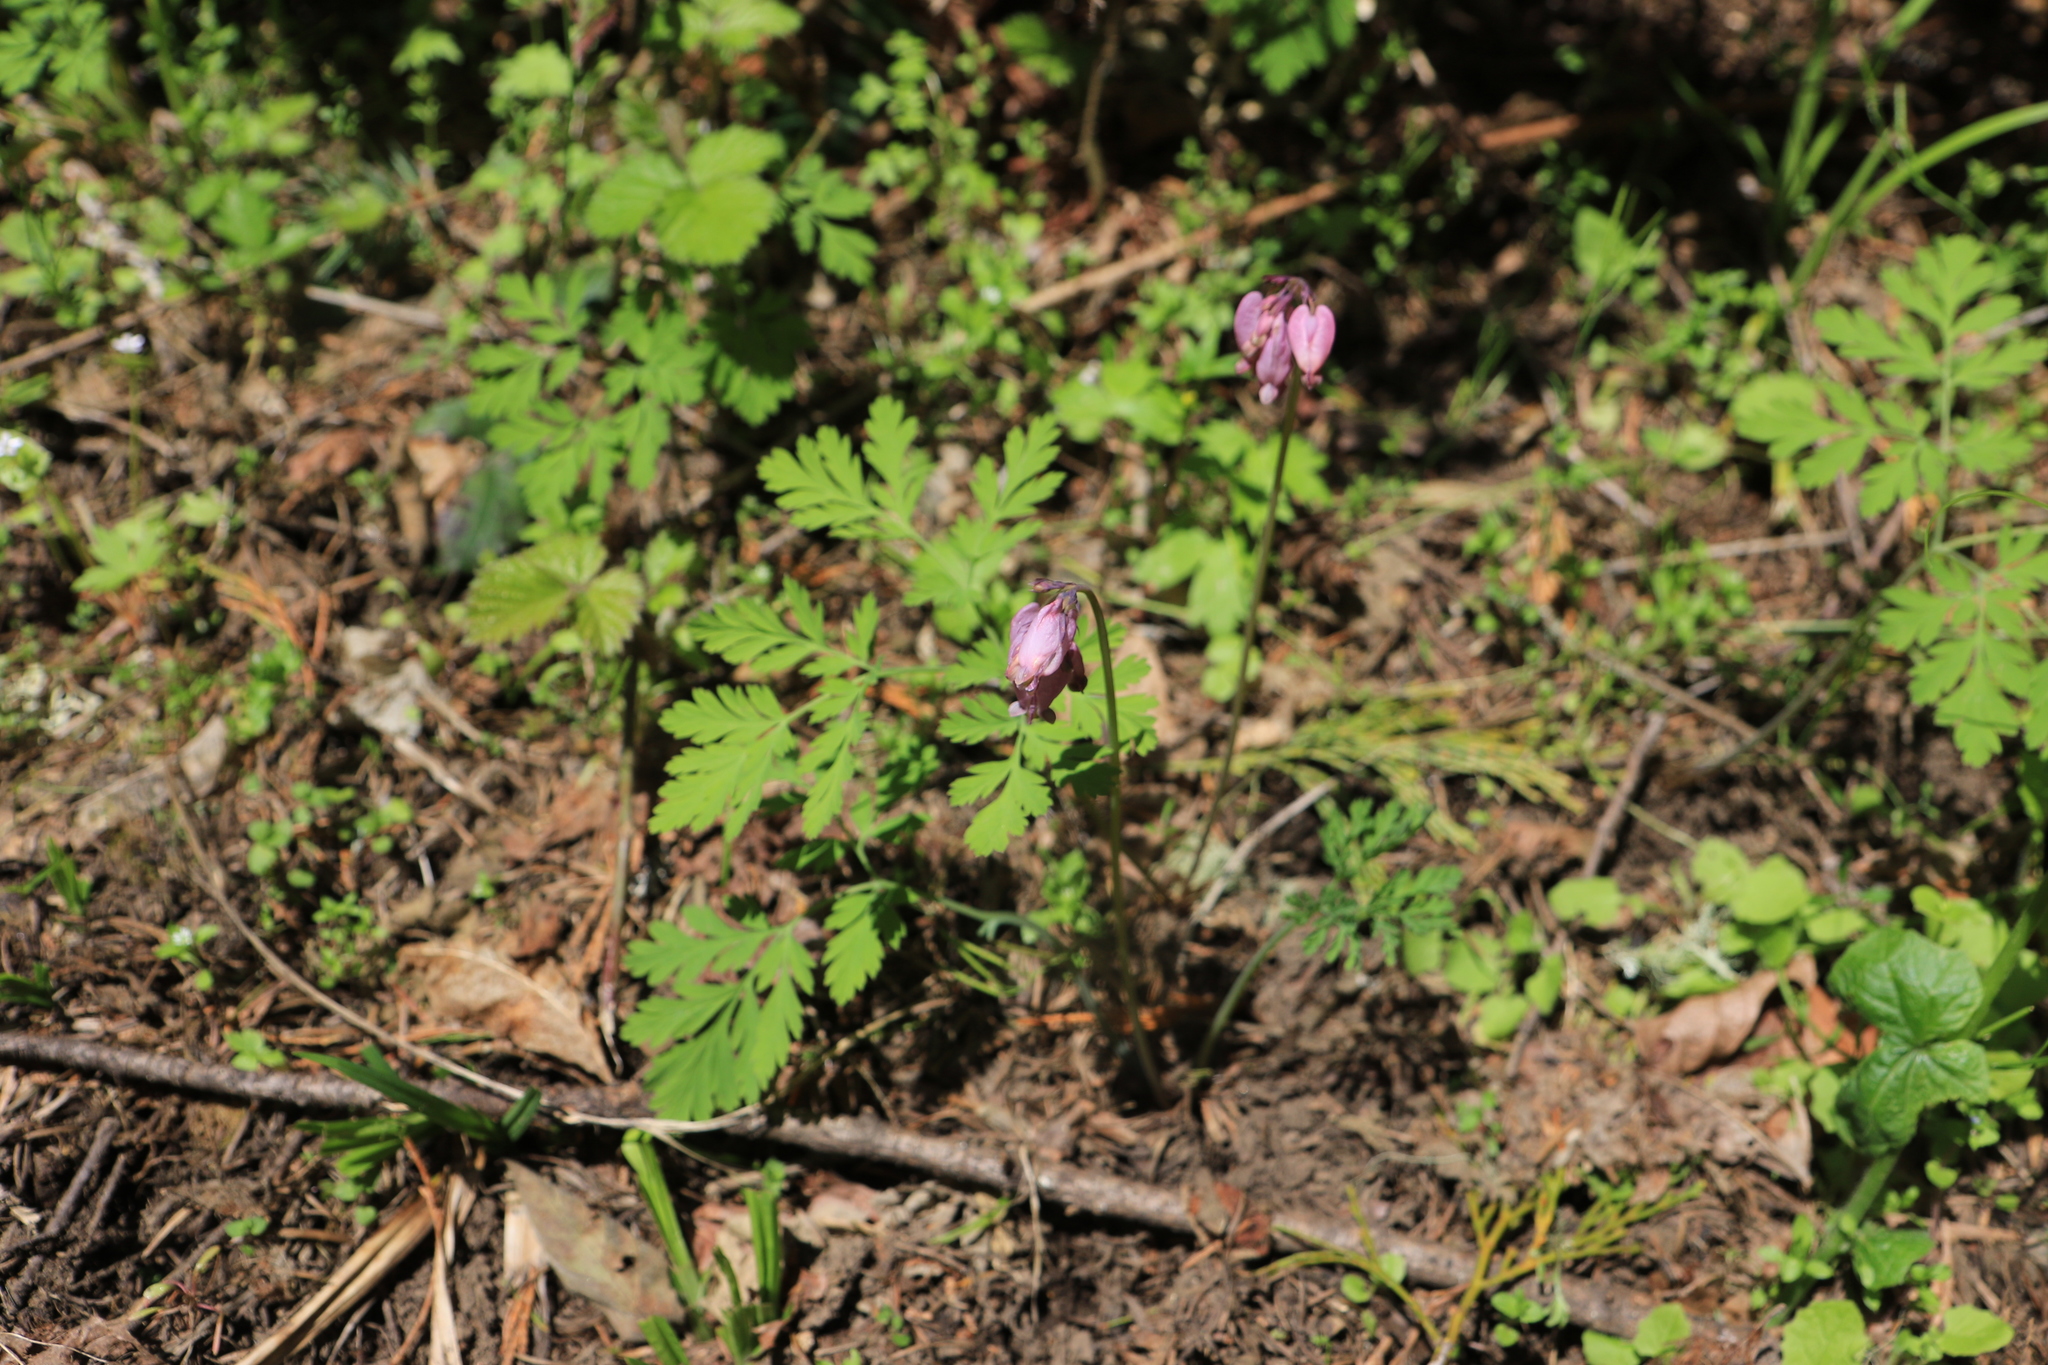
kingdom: Plantae
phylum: Tracheophyta
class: Magnoliopsida
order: Ranunculales
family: Papaveraceae
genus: Dicentra
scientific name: Dicentra formosa
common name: Bleeding-heart
